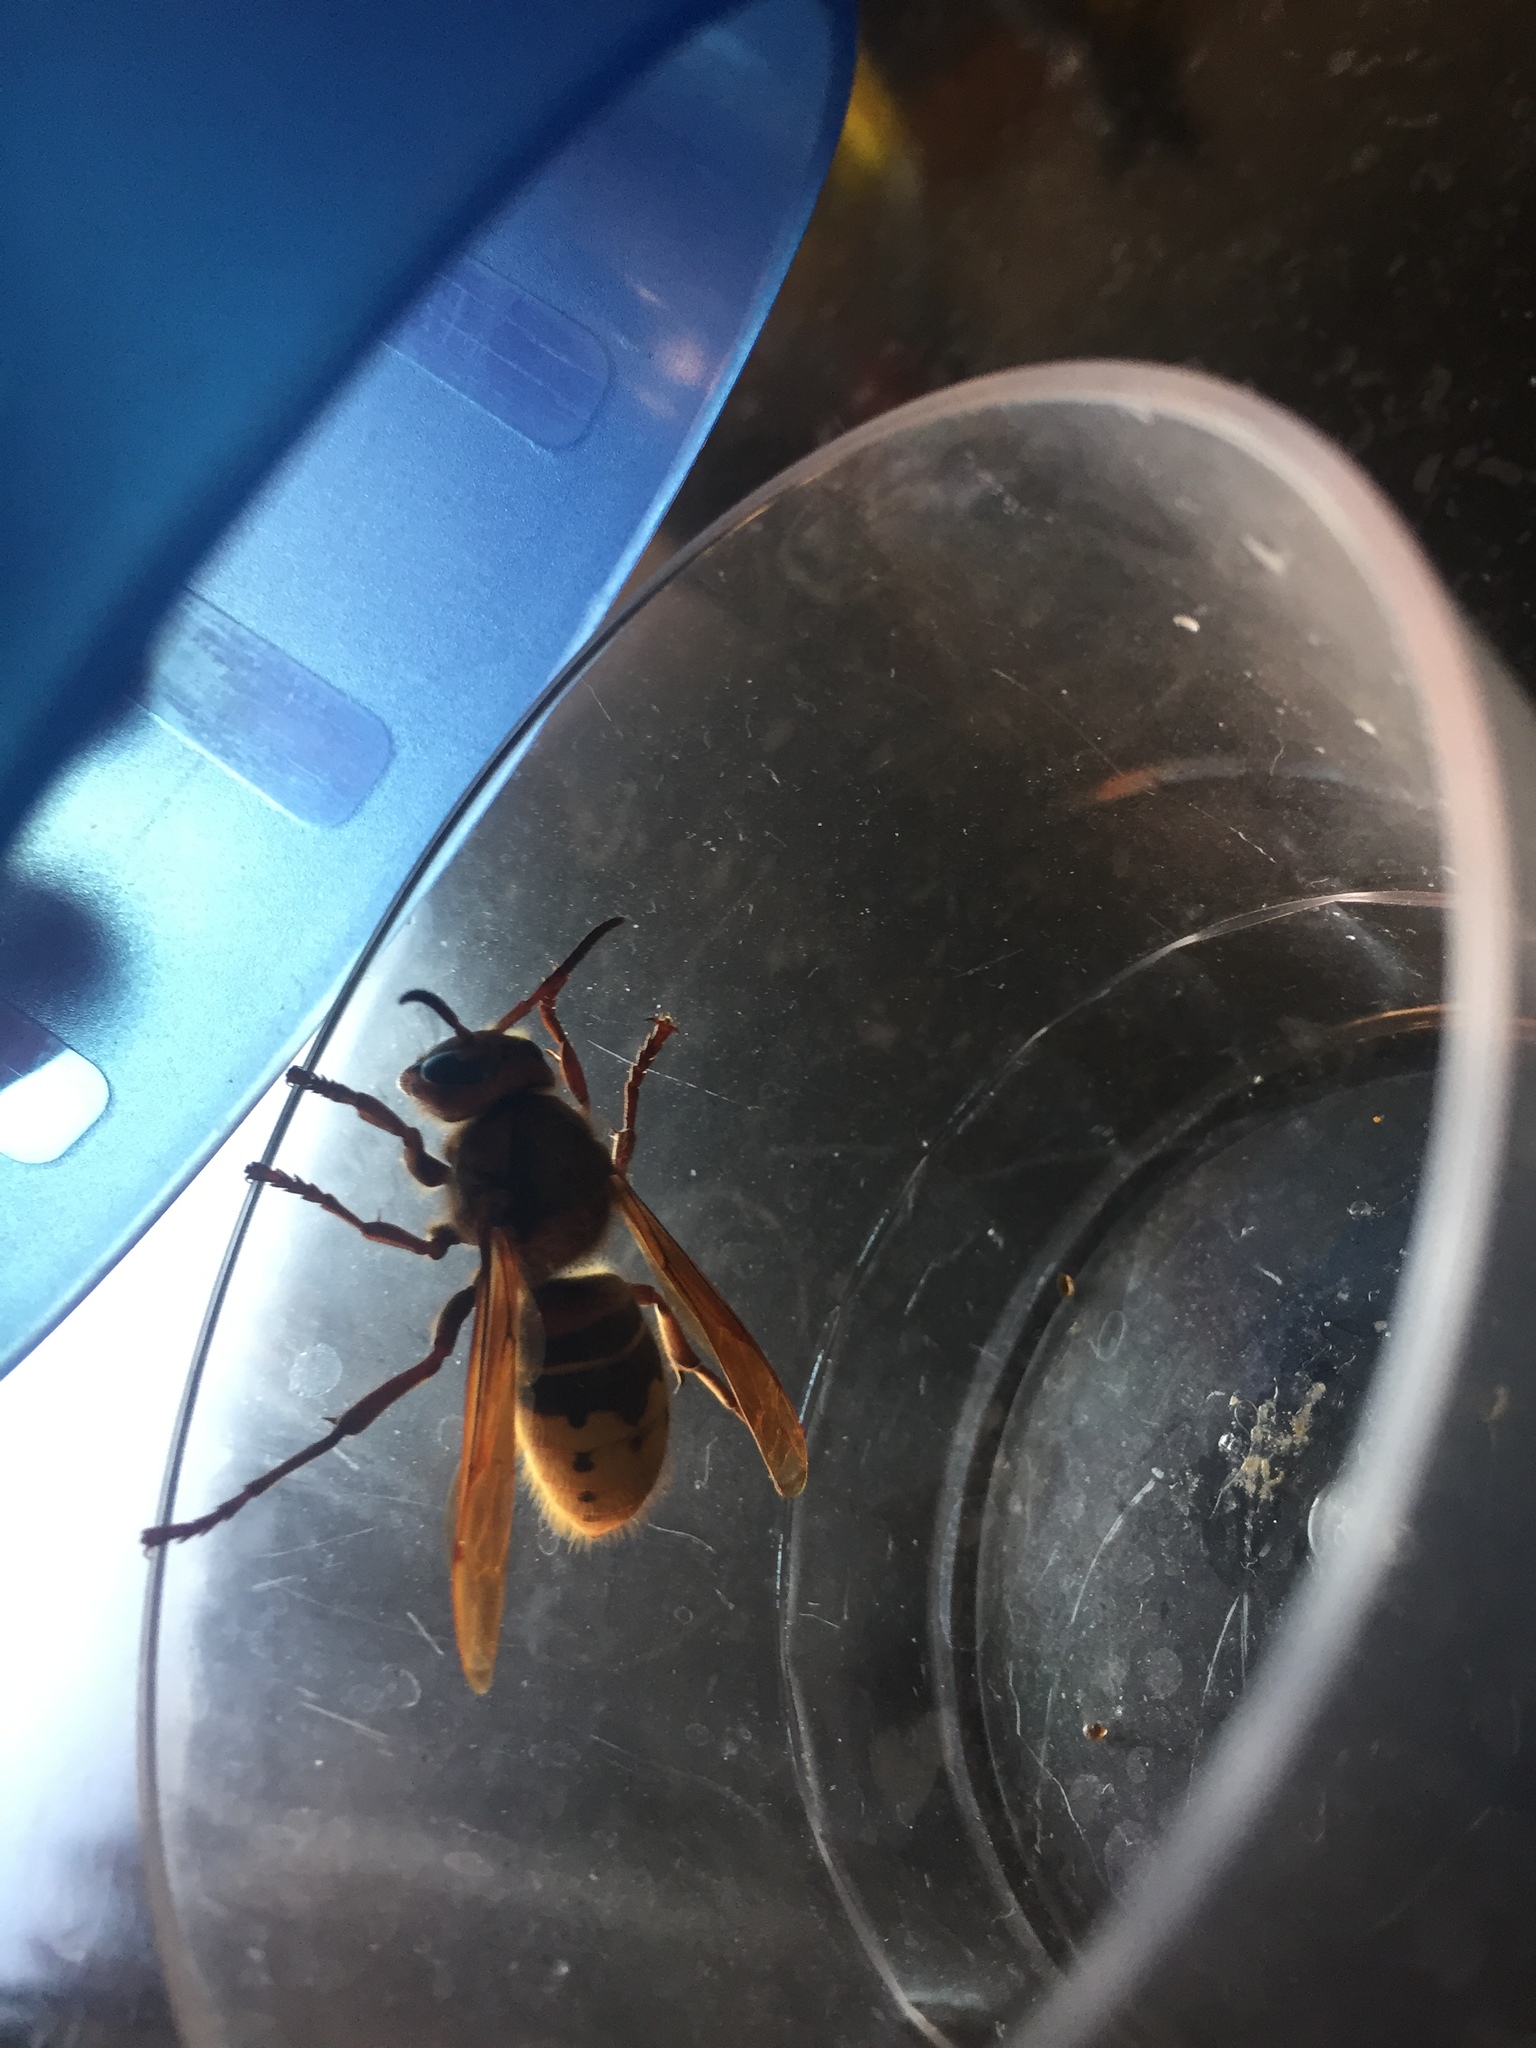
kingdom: Animalia
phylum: Arthropoda
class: Insecta
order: Hymenoptera
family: Vespidae
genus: Vespa
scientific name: Vespa crabro
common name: Hornet
